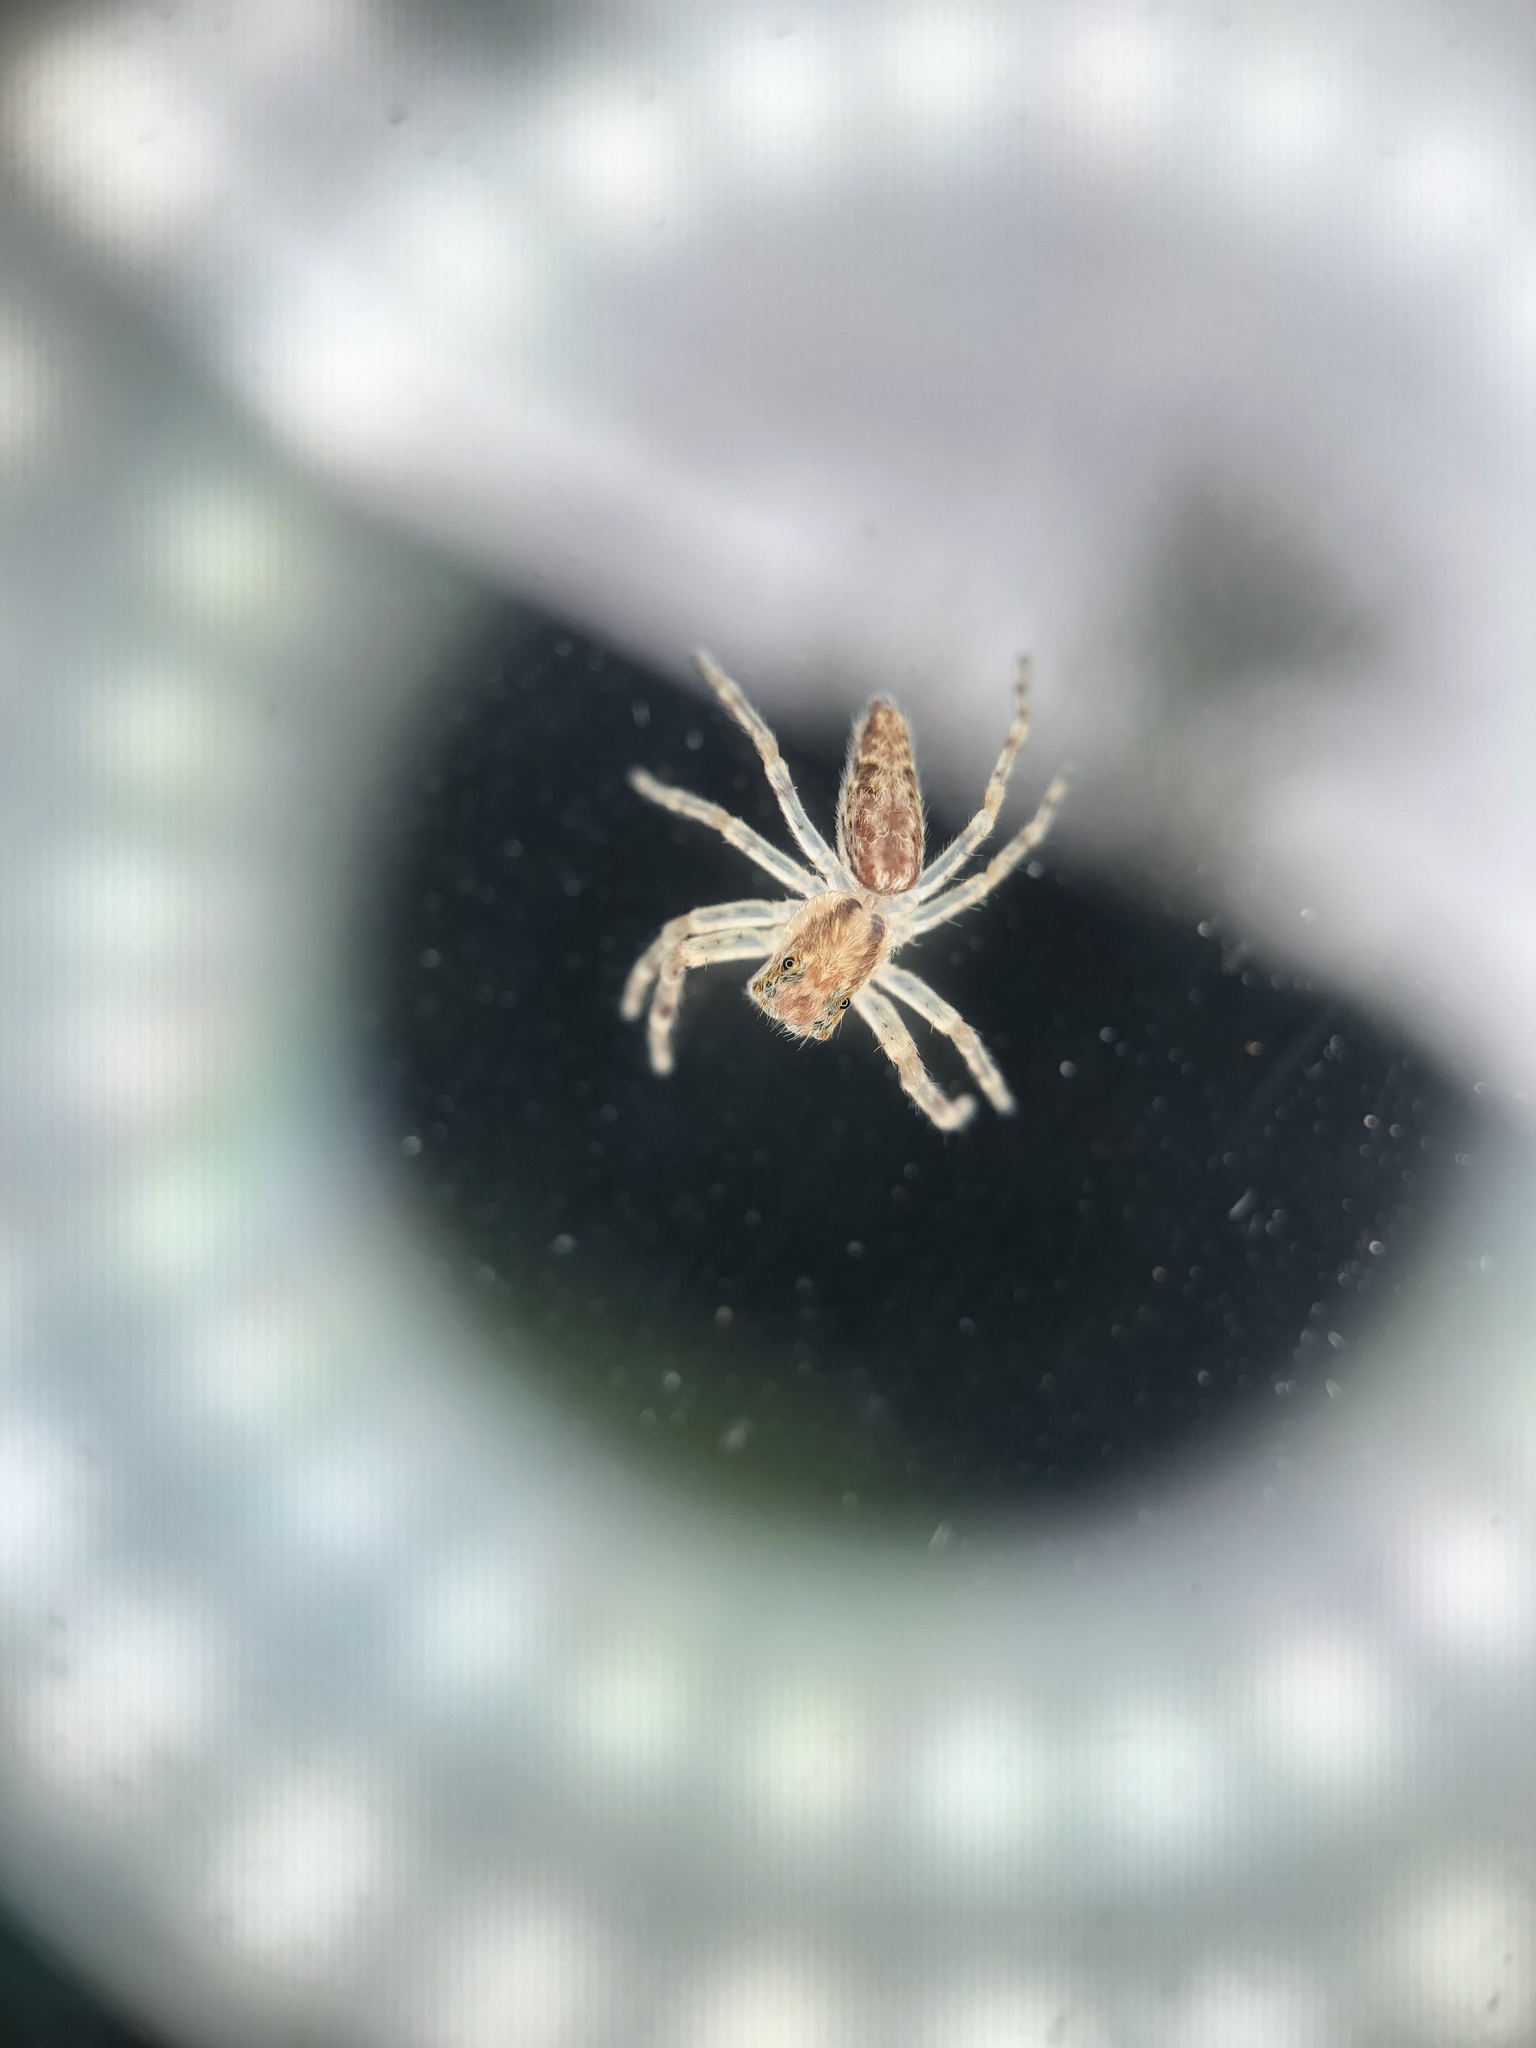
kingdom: Animalia
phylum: Arthropoda
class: Arachnida
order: Araneae
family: Salticidae
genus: Helpis
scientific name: Helpis minitabunda
